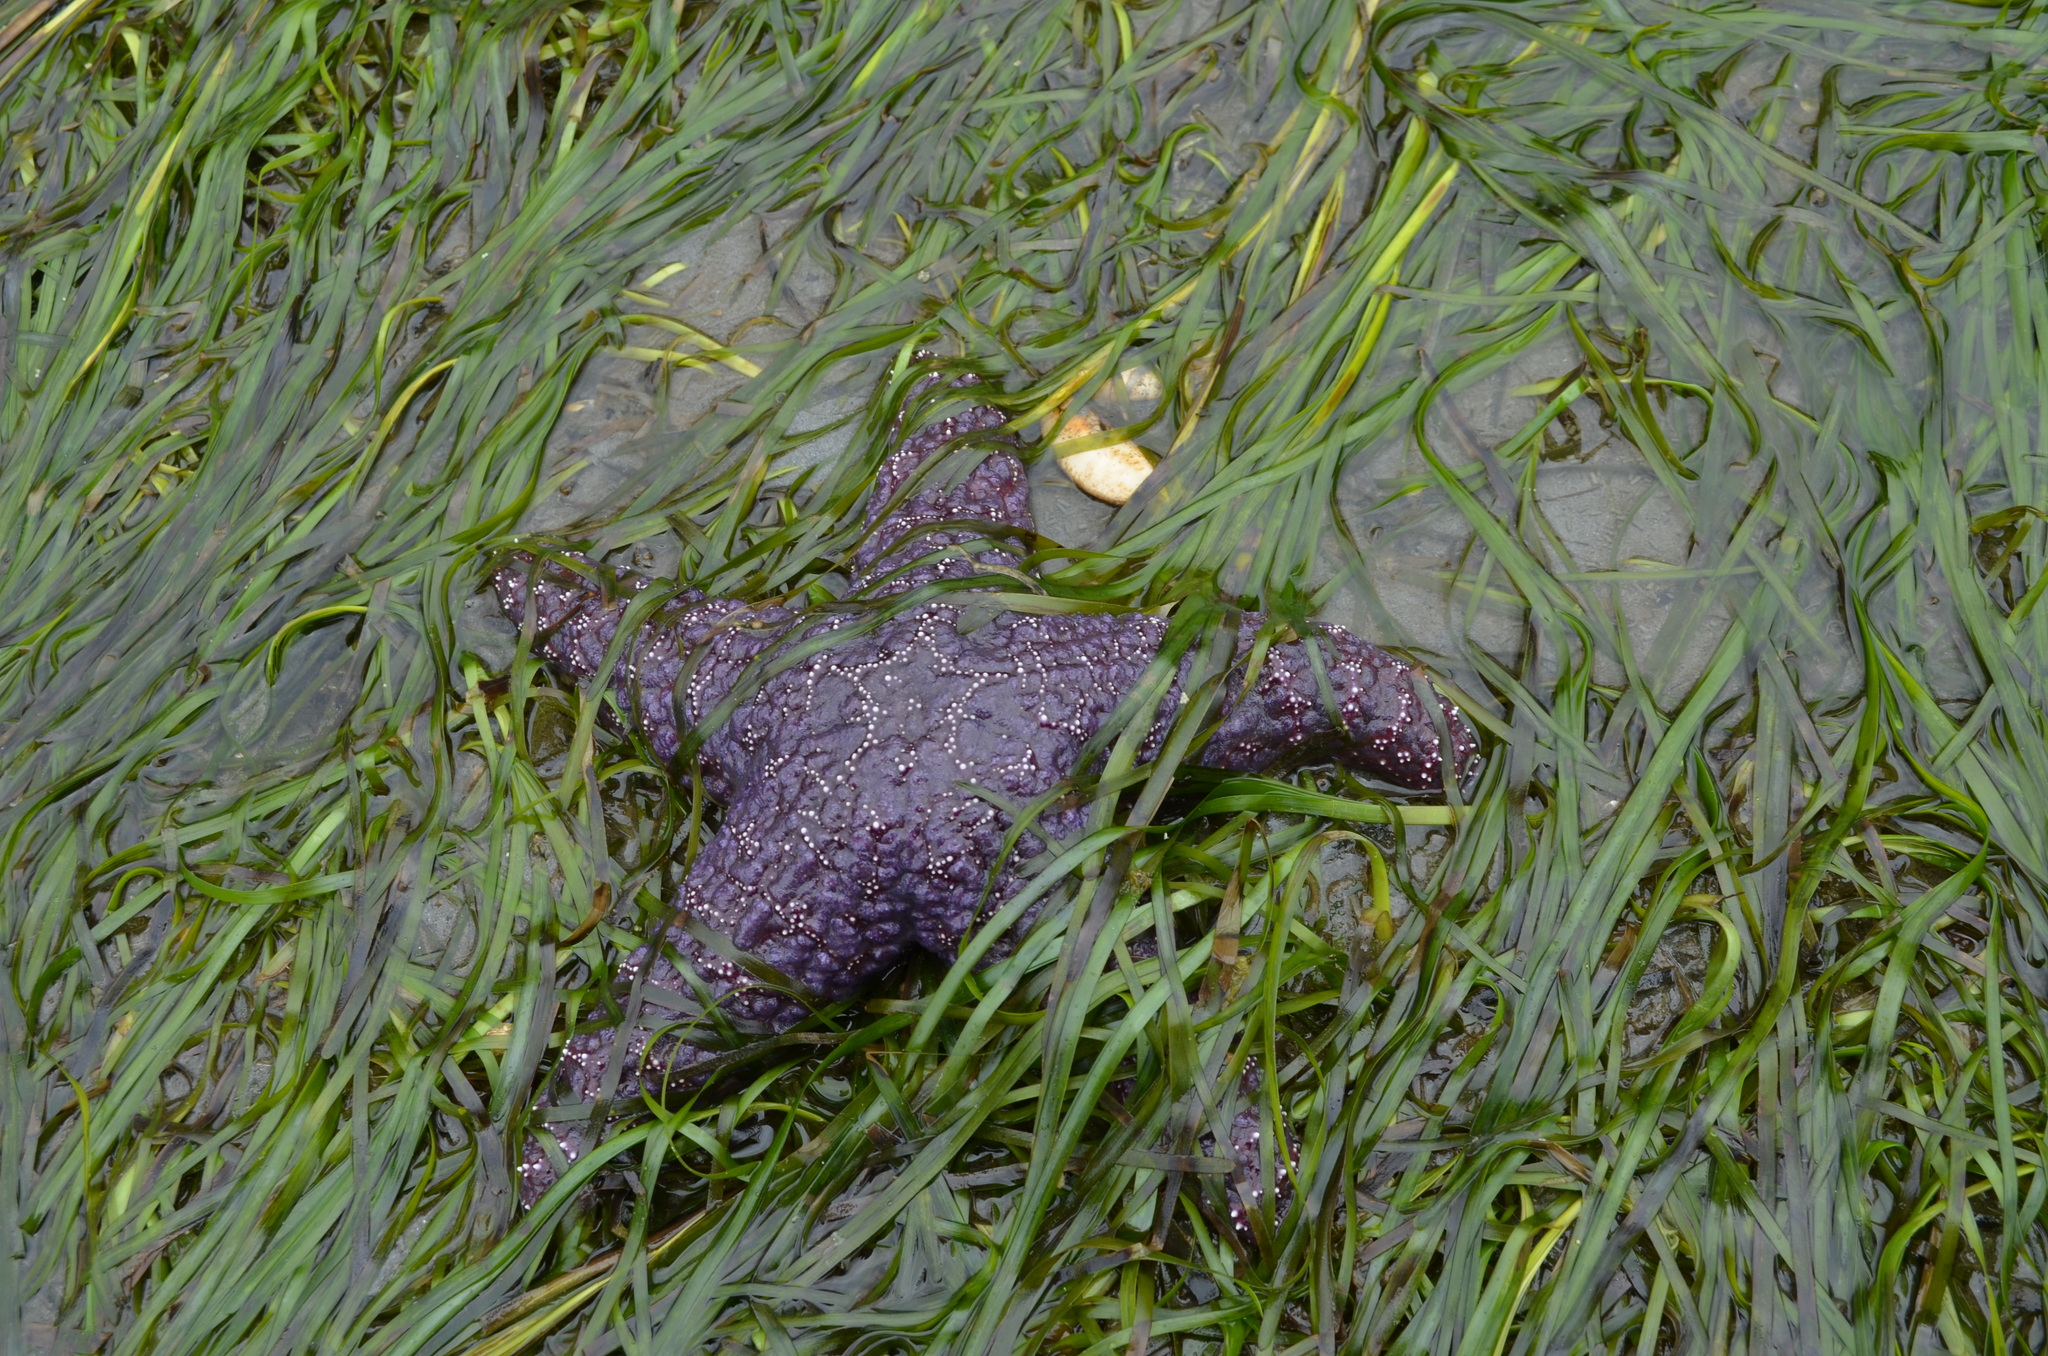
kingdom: Animalia
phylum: Echinodermata
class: Asteroidea
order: Forcipulatida
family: Asteriidae
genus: Pisaster
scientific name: Pisaster ochraceus
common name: Ochre stars
